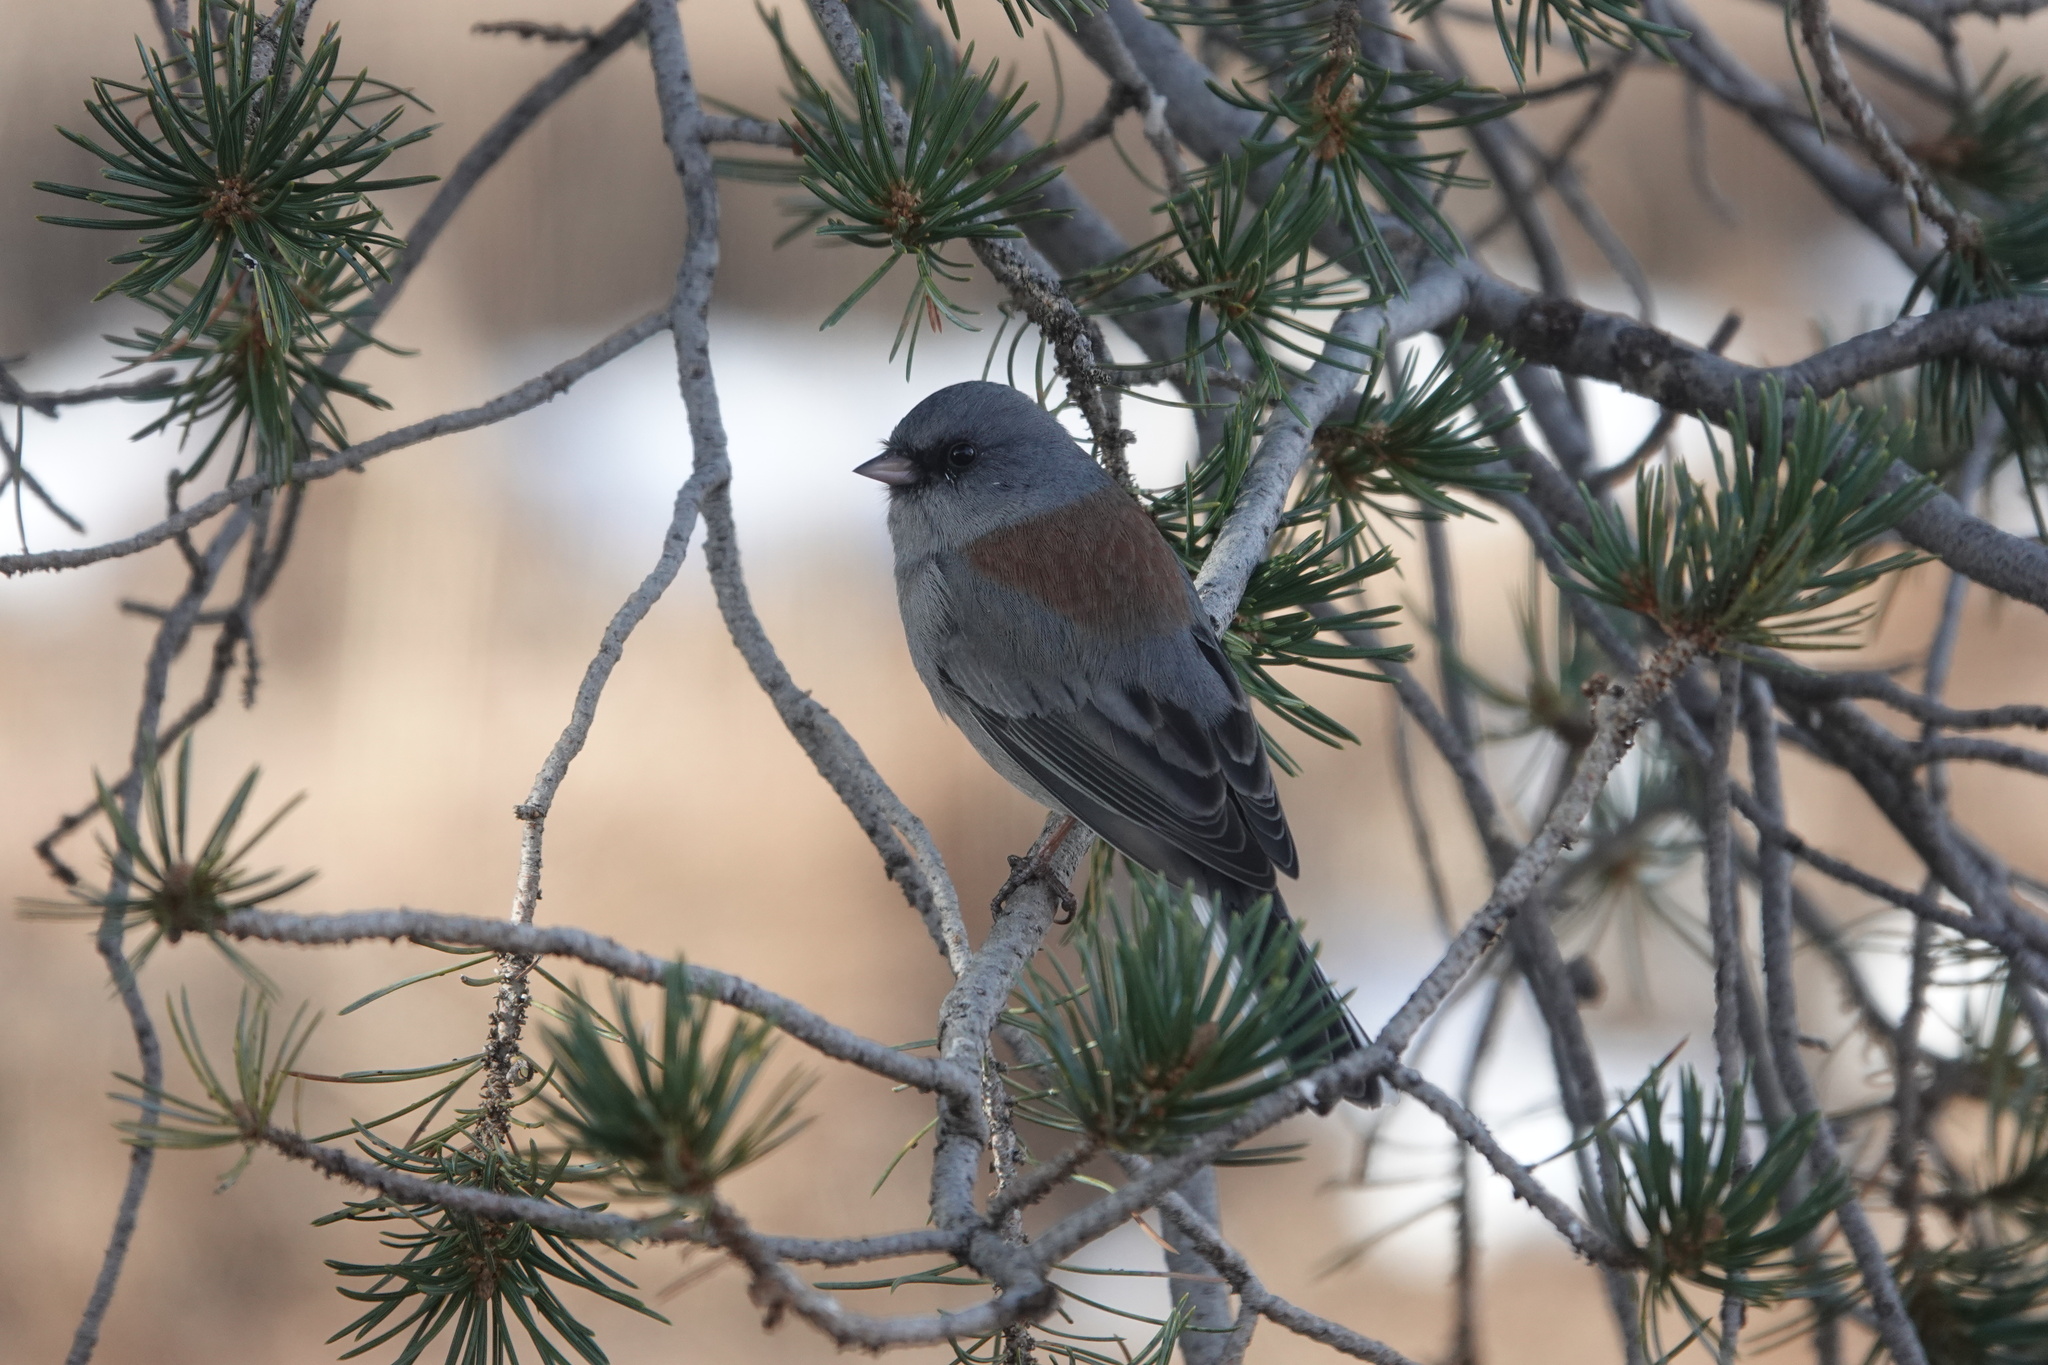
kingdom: Animalia
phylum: Chordata
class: Aves
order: Passeriformes
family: Passerellidae
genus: Junco
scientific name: Junco hyemalis
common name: Dark-eyed junco
